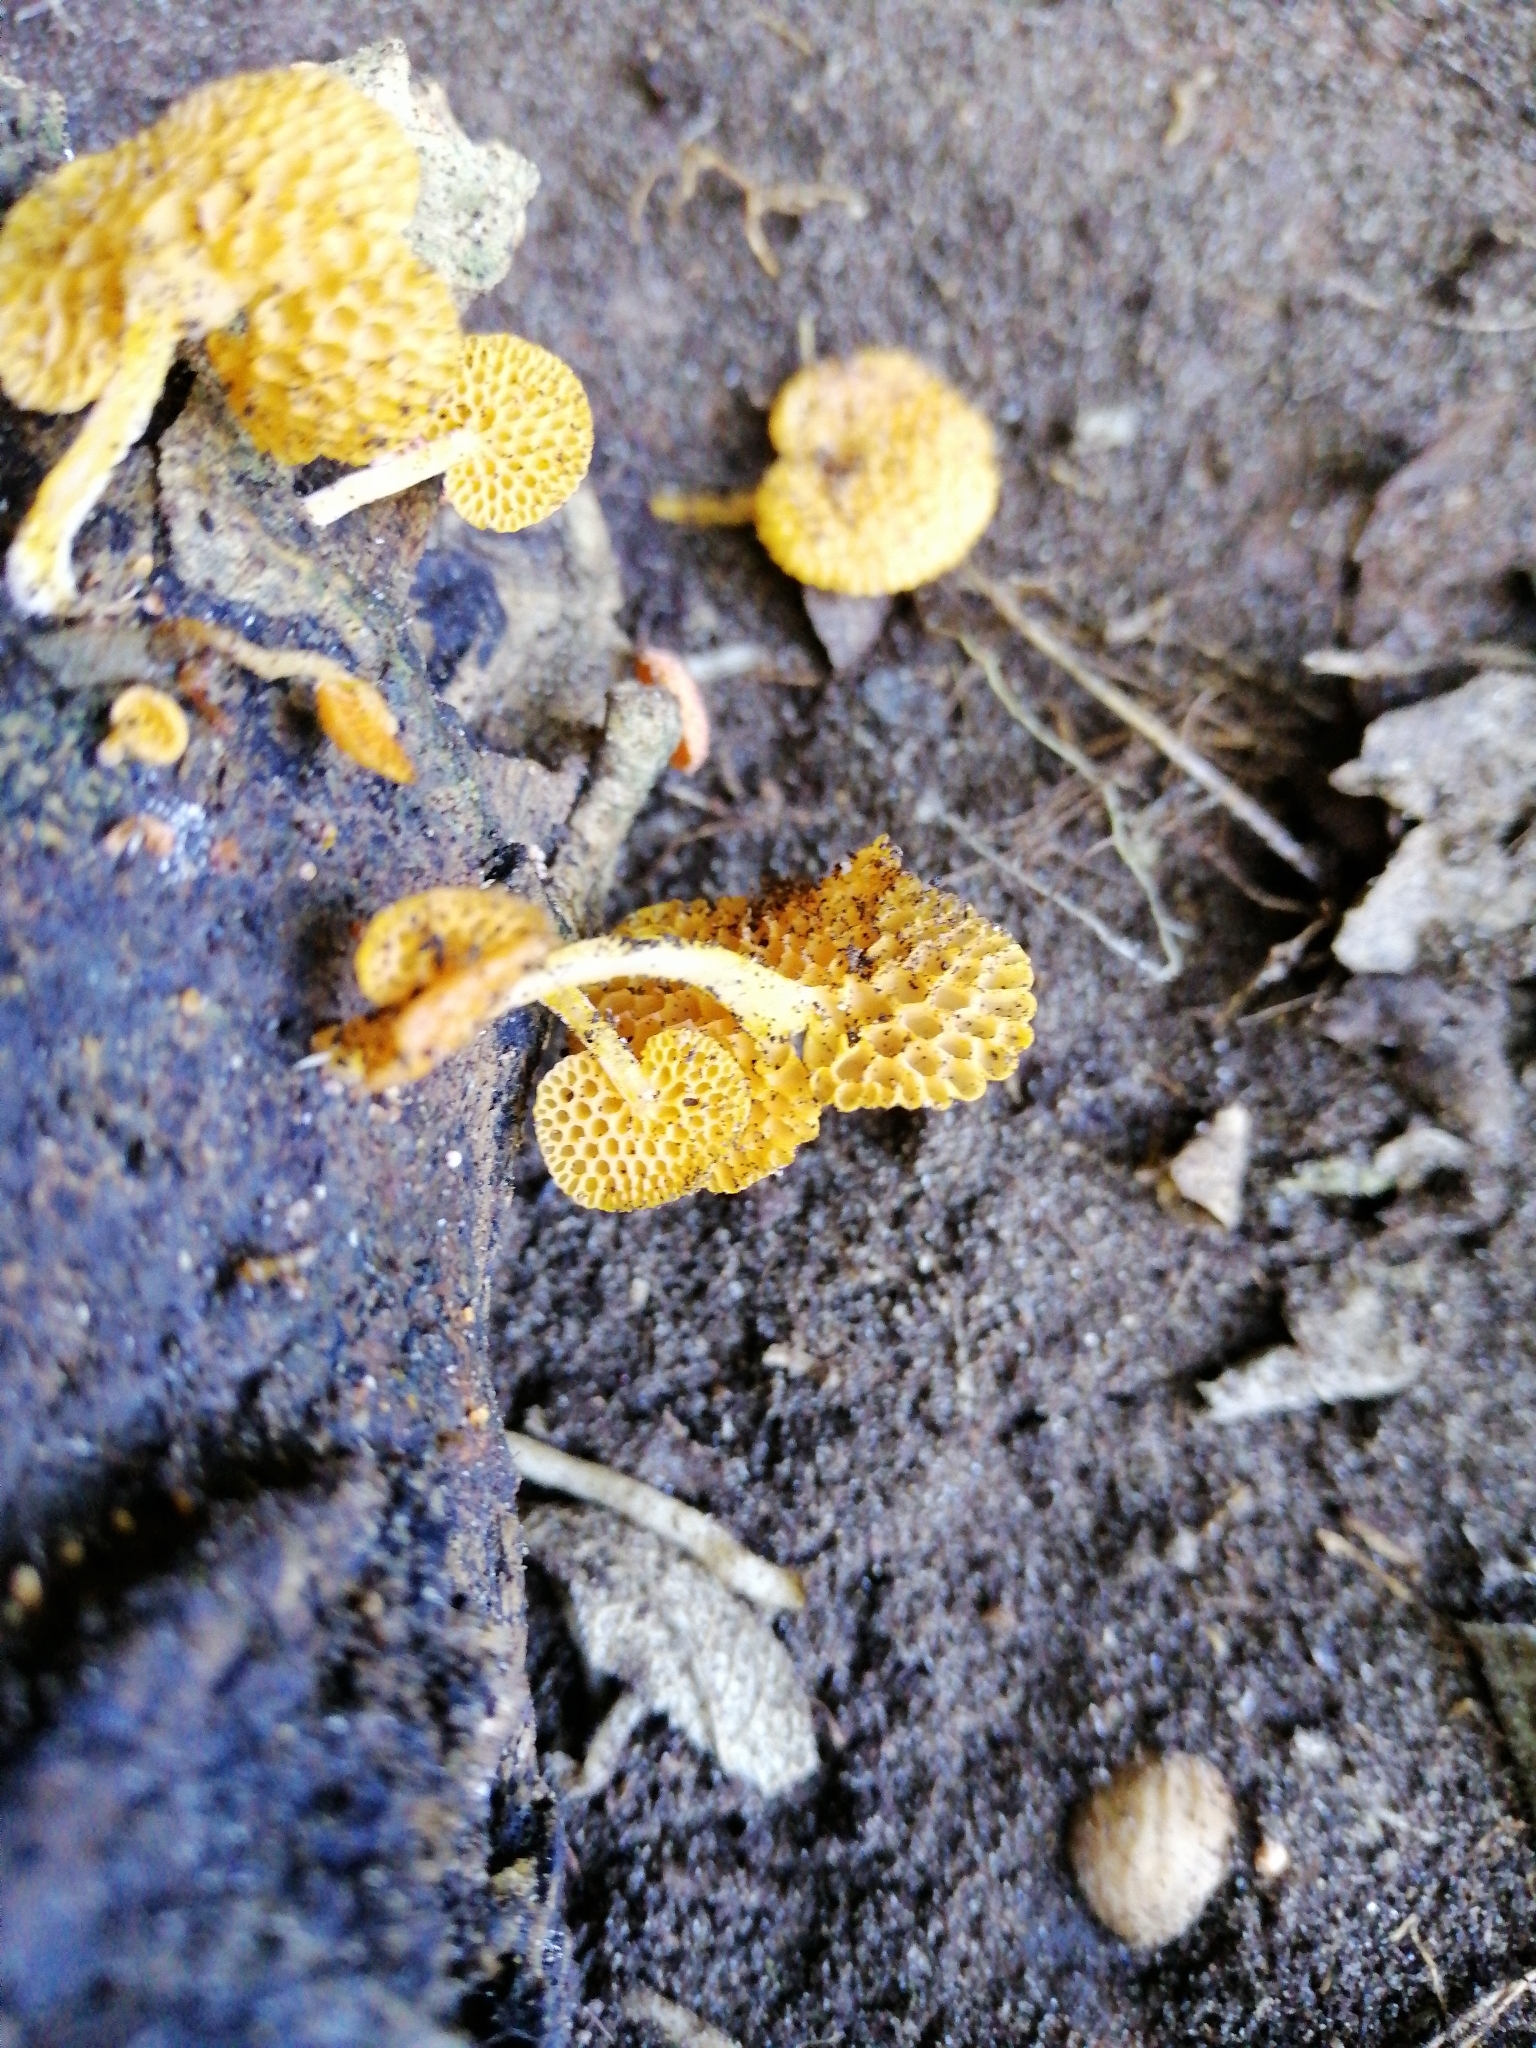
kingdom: Fungi
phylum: Basidiomycota
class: Agaricomycetes
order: Agaricales
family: Mycenaceae
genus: Favolaschia
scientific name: Favolaschia claudopus
